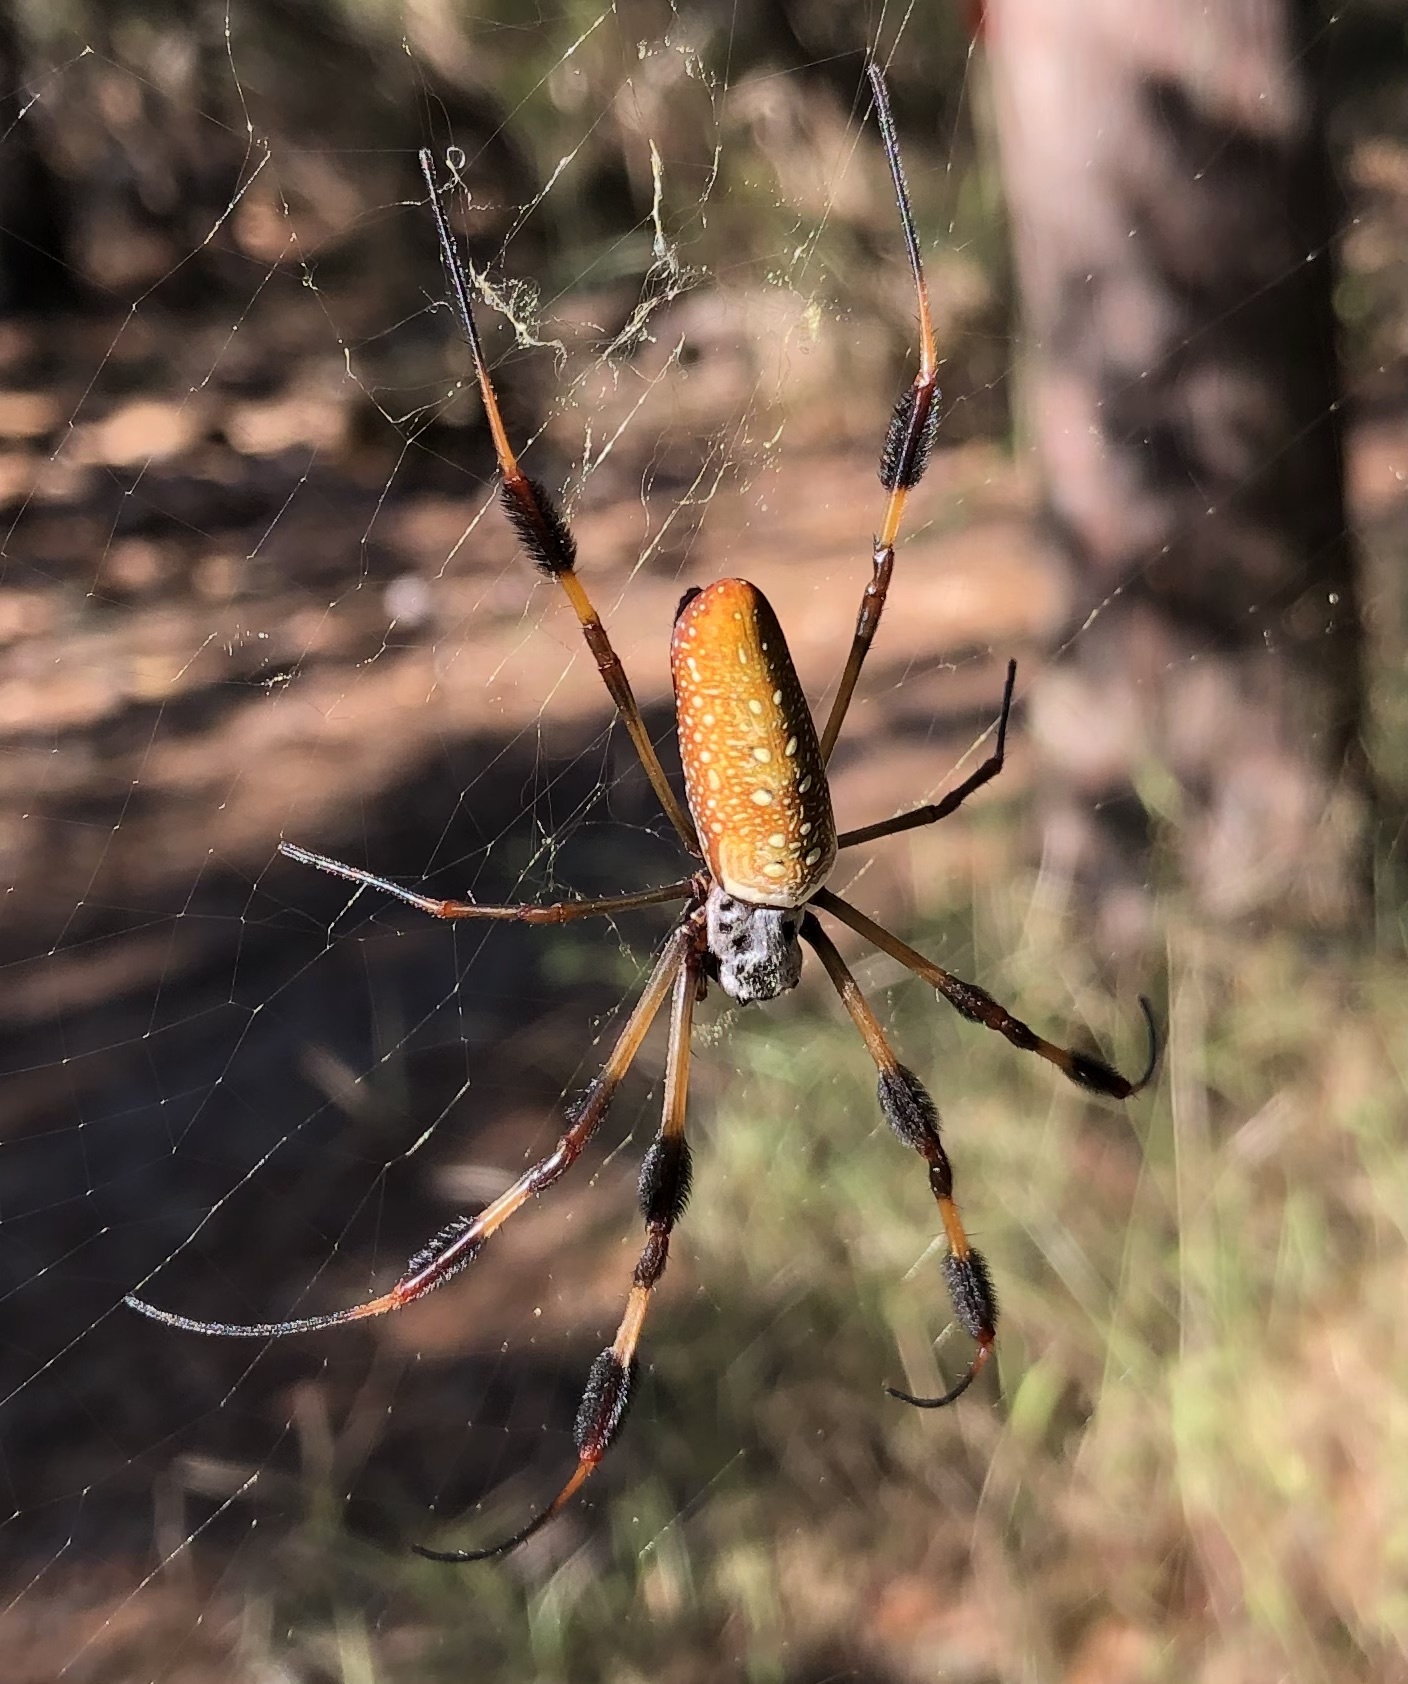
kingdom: Animalia
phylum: Arthropoda
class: Arachnida
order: Araneae
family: Araneidae
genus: Trichonephila
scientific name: Trichonephila clavipes
